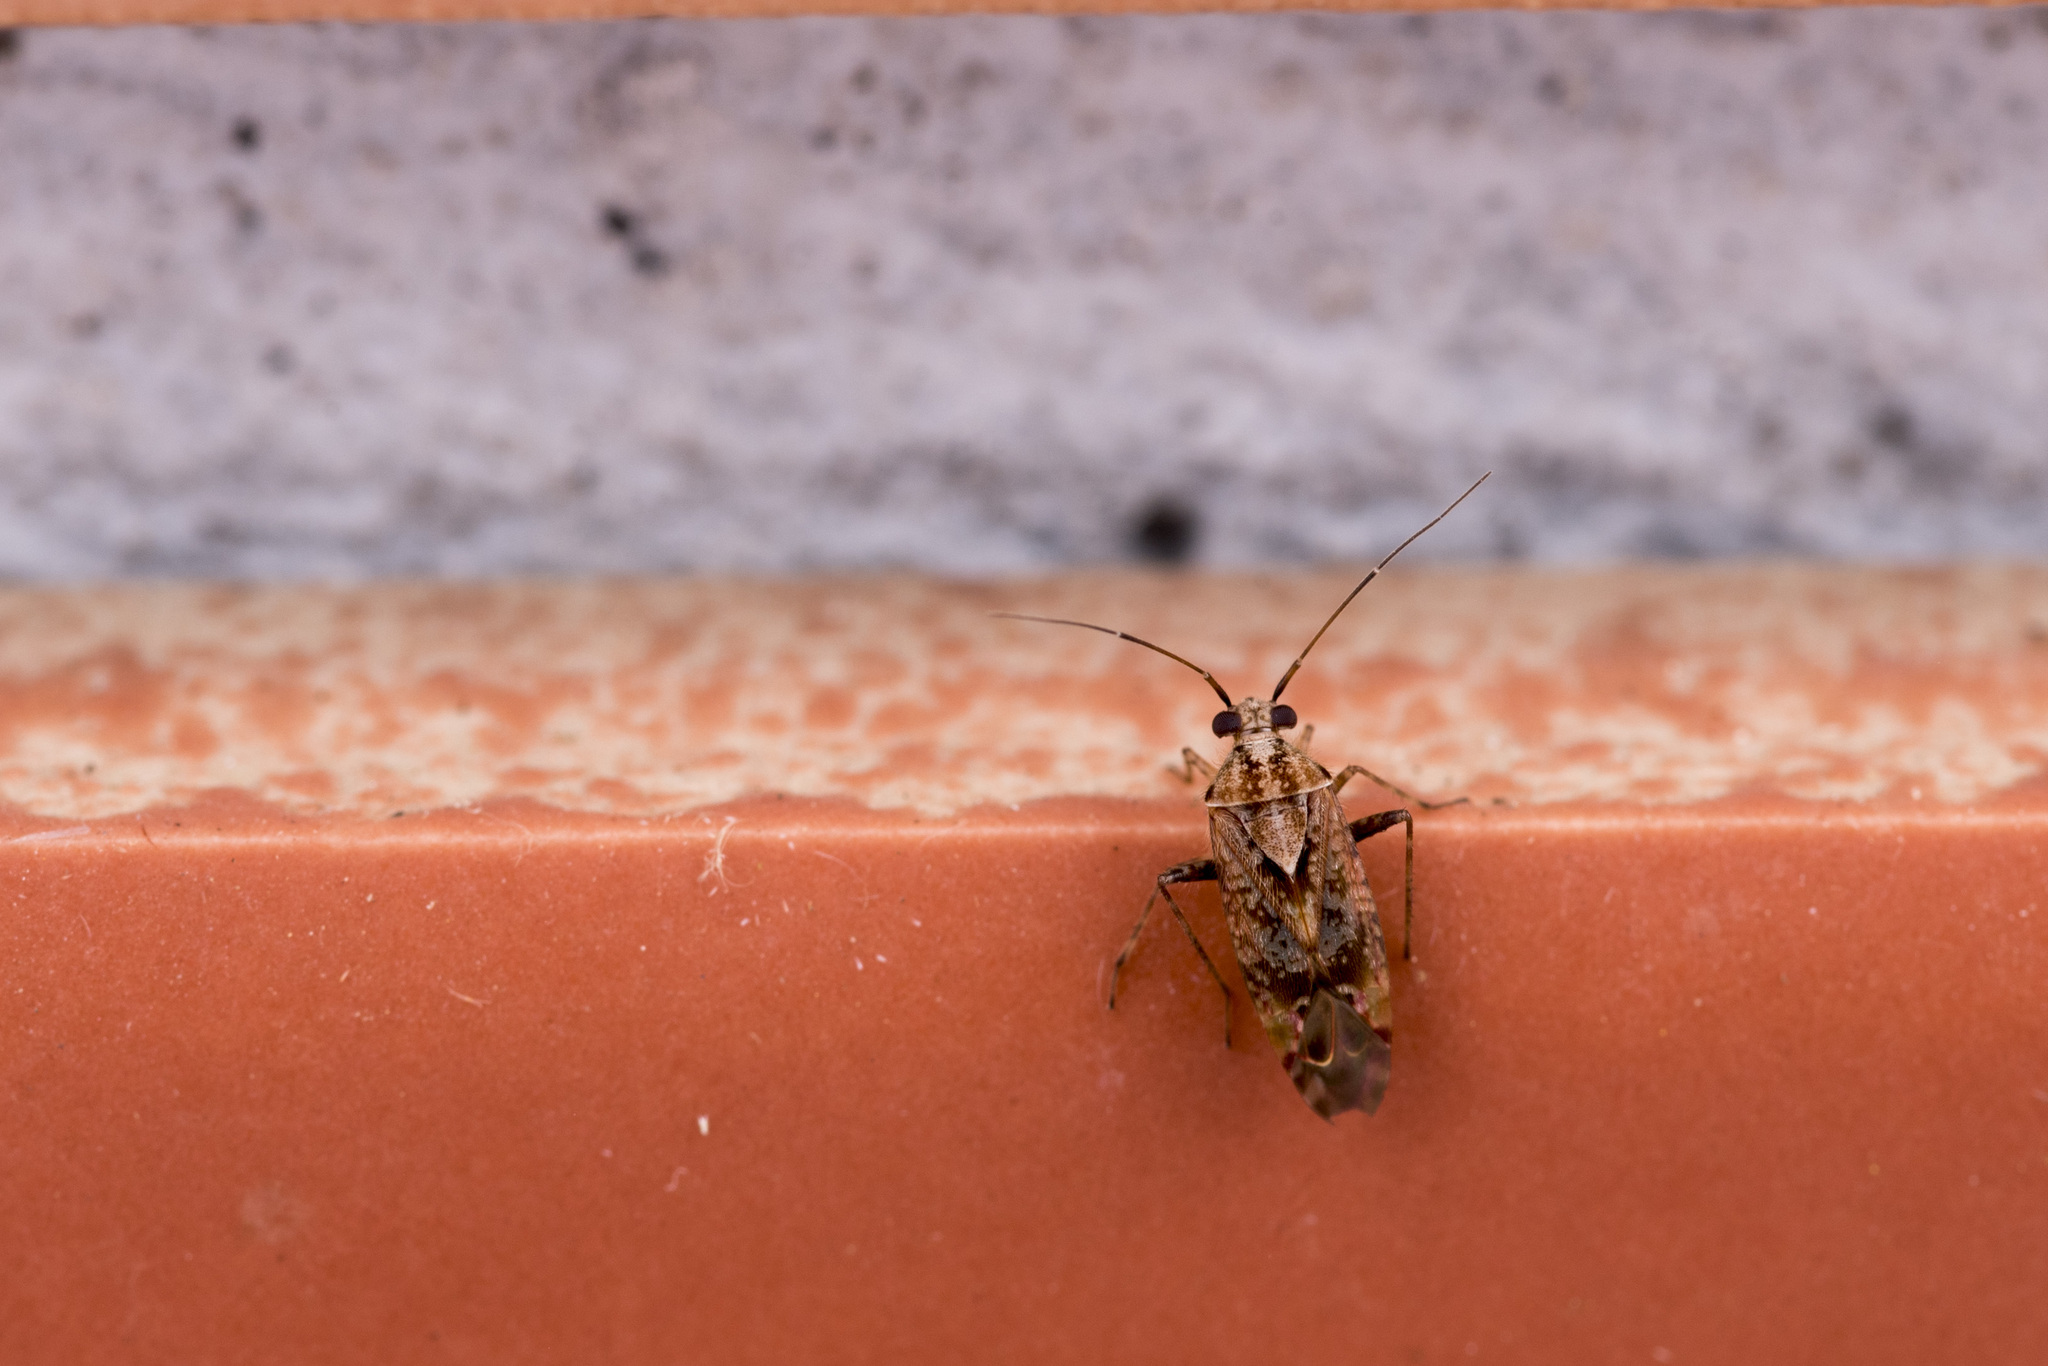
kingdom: Animalia
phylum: Arthropoda
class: Insecta
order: Hemiptera
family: Miridae
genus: Tinginotum
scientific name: Tinginotum perlatum
